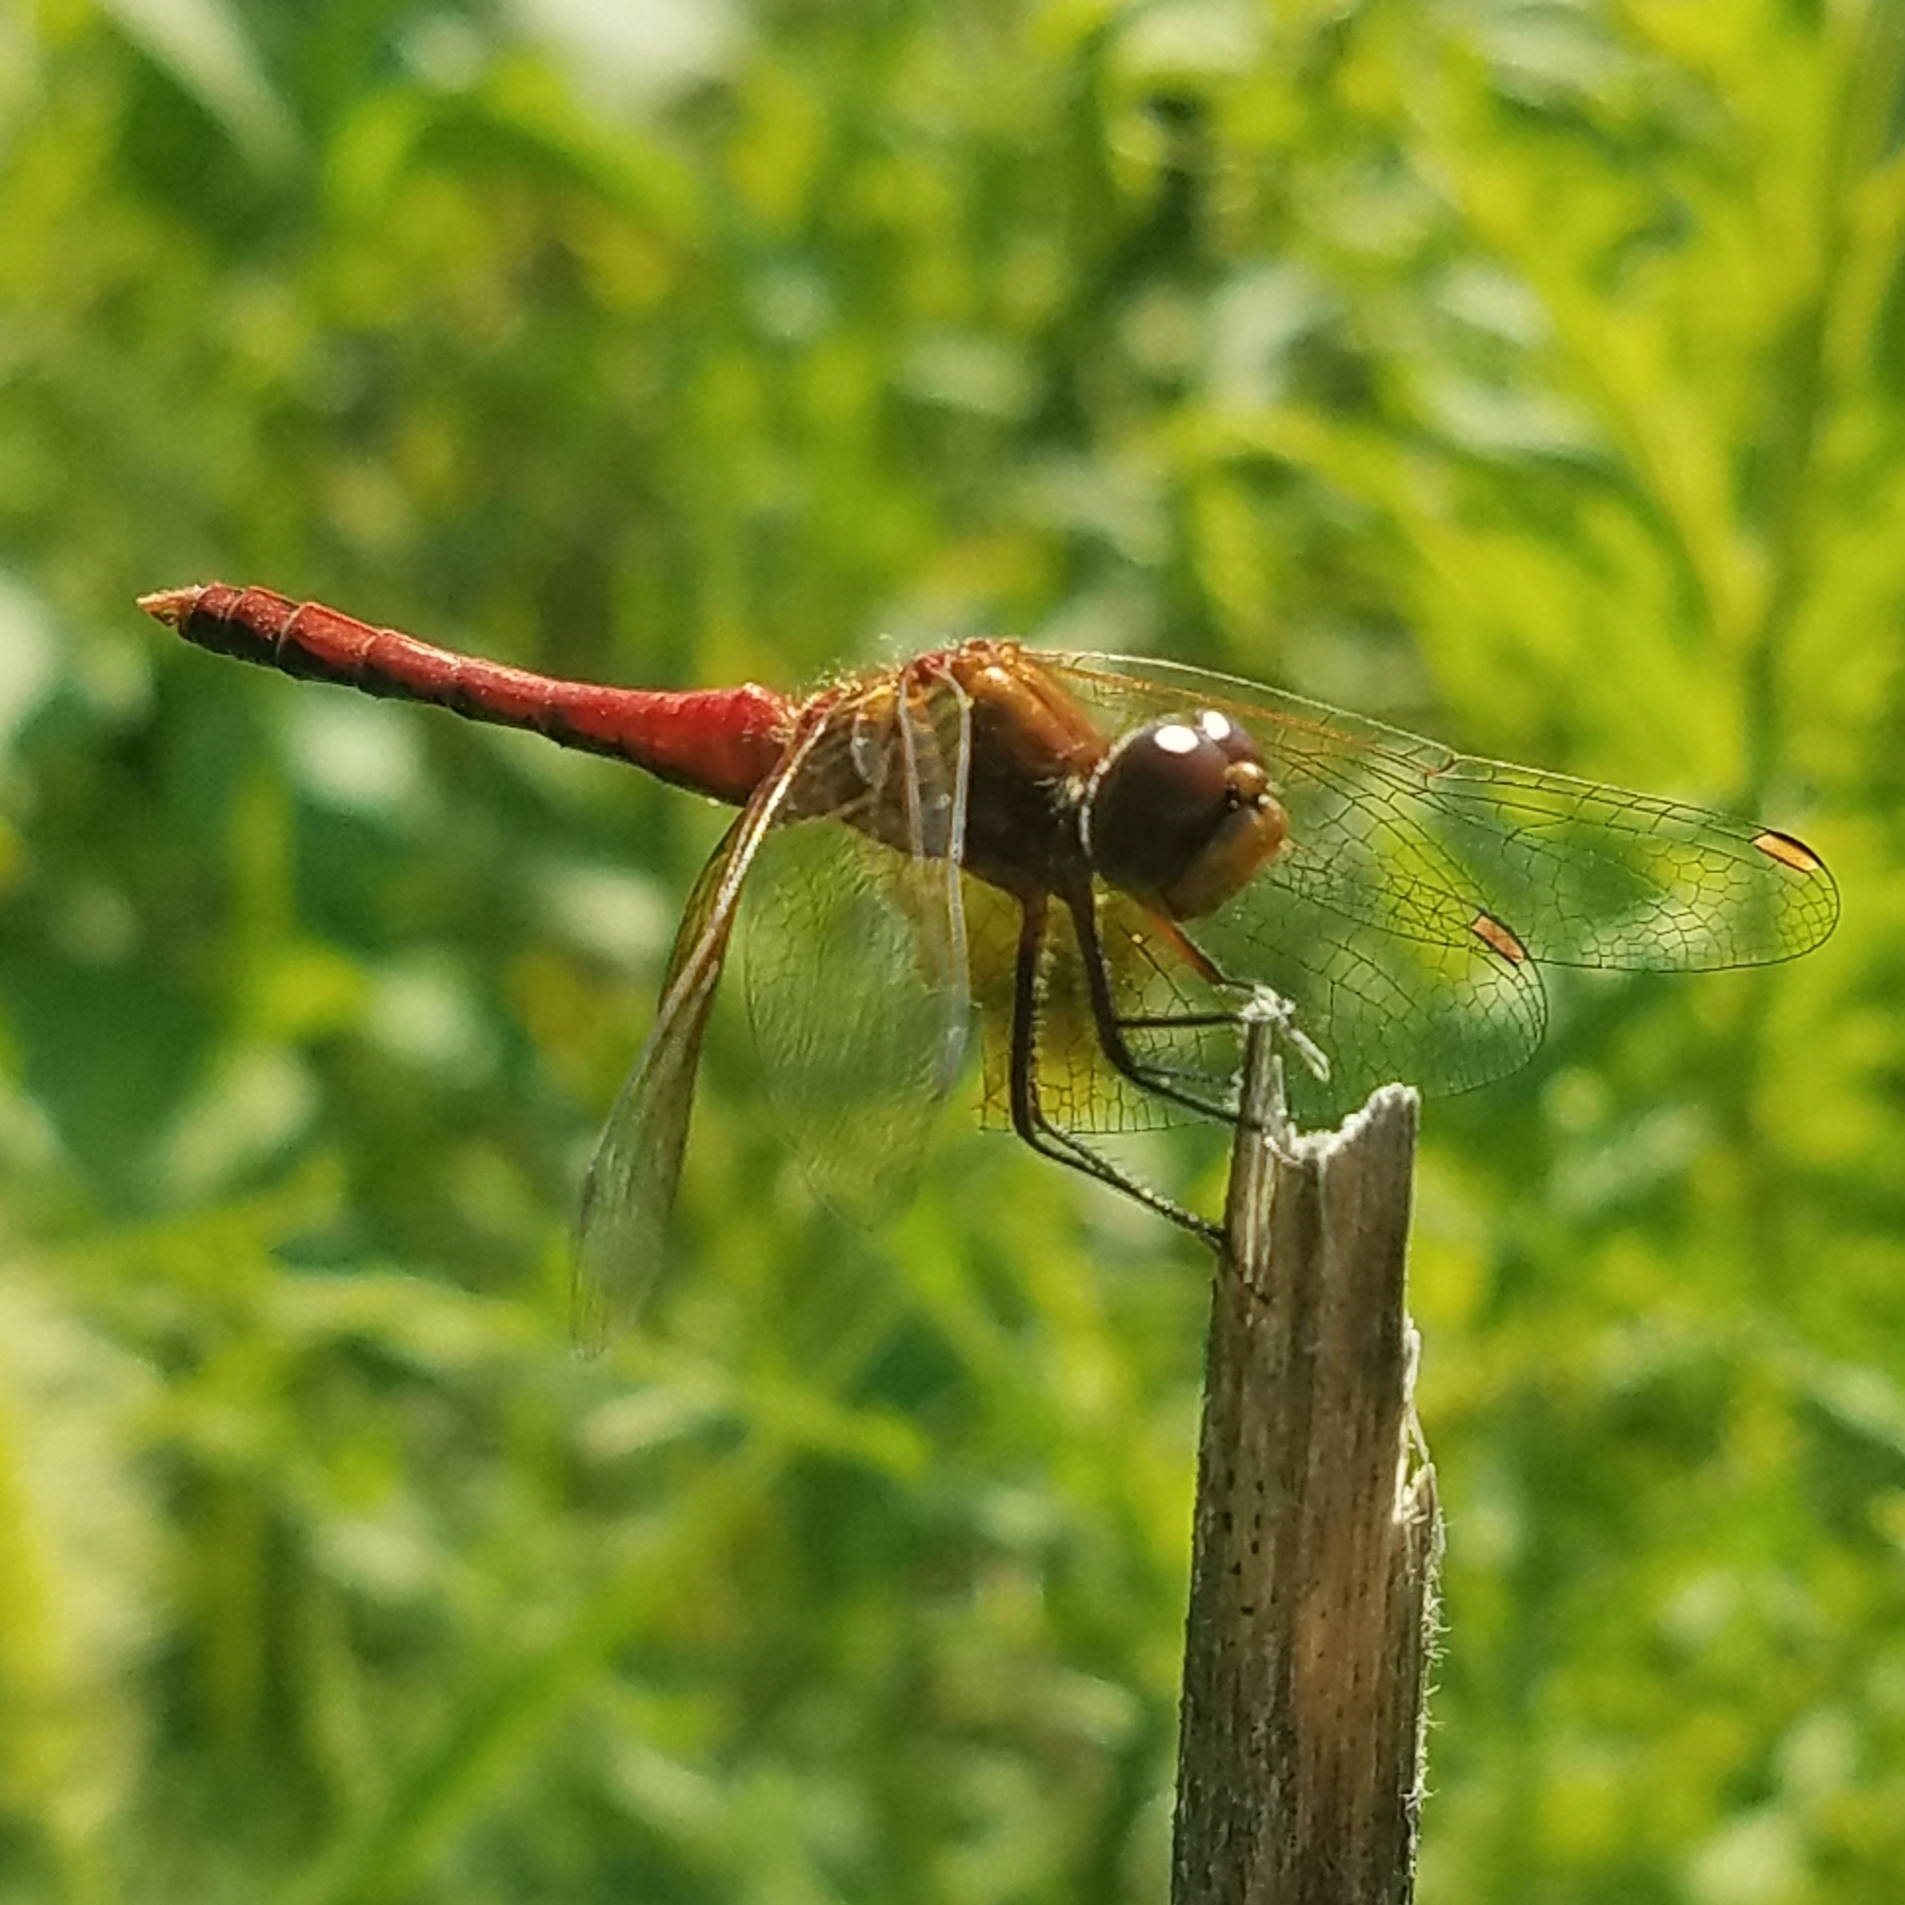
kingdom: Animalia
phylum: Arthropoda
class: Insecta
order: Odonata
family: Libellulidae
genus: Sympetrum
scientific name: Sympetrum semicinctum
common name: Band-winged meadowhawk
